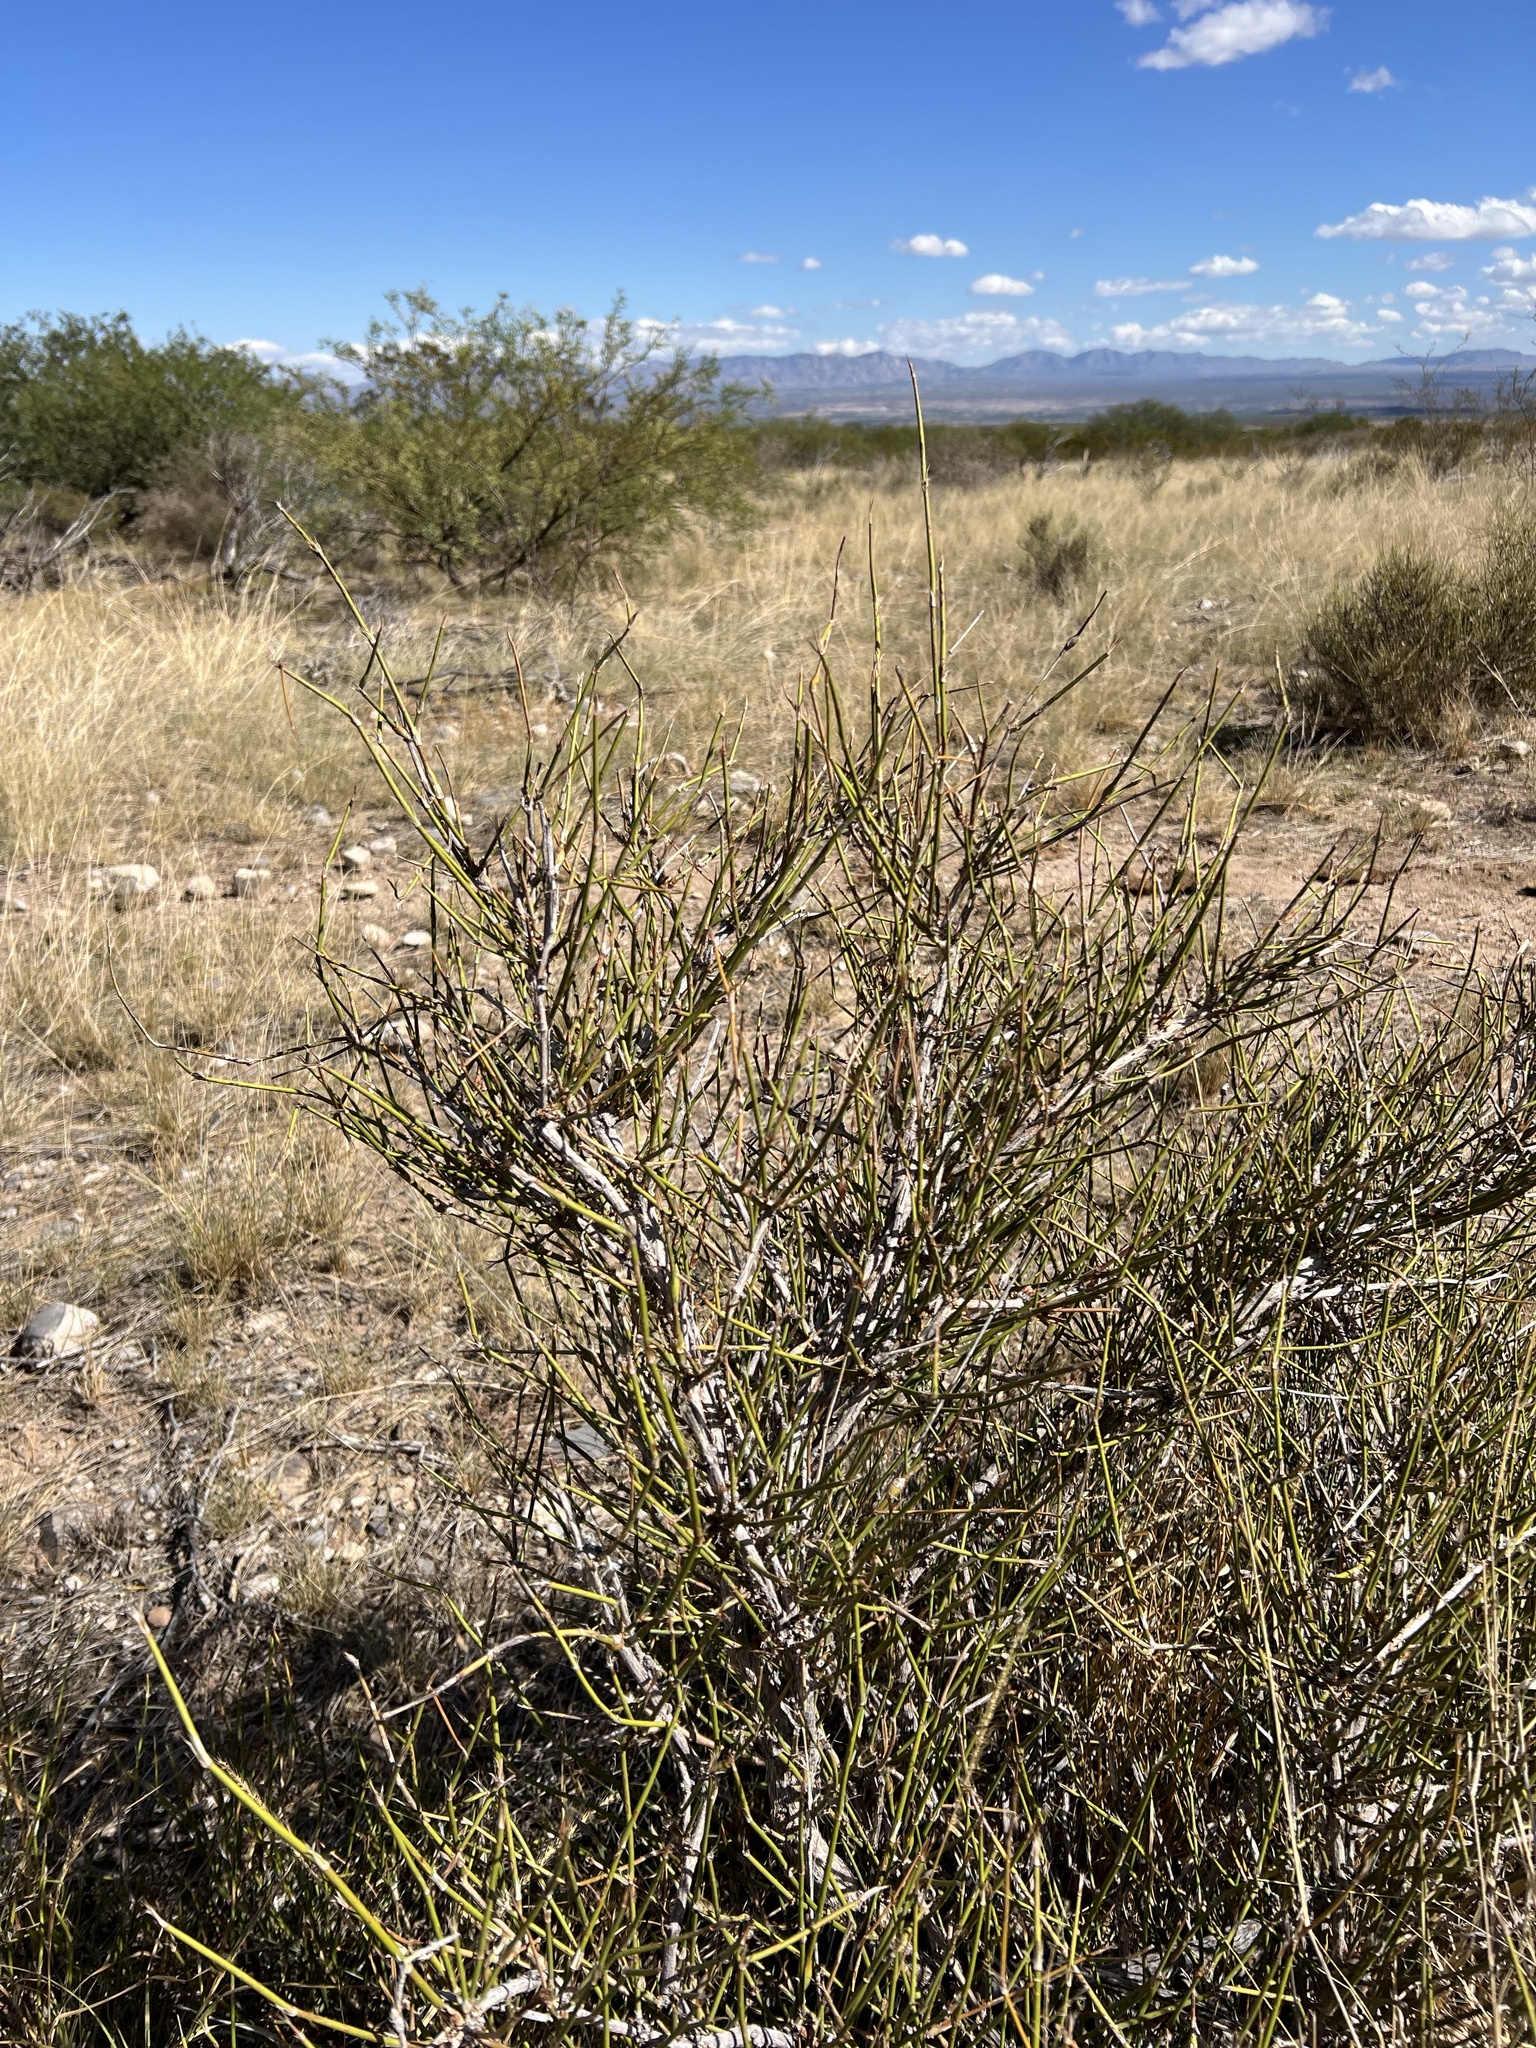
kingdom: Plantae
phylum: Tracheophyta
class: Gnetopsida
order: Ephedrales
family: Ephedraceae
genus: Ephedra
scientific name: Ephedra trifurca
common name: Mexican-tea
